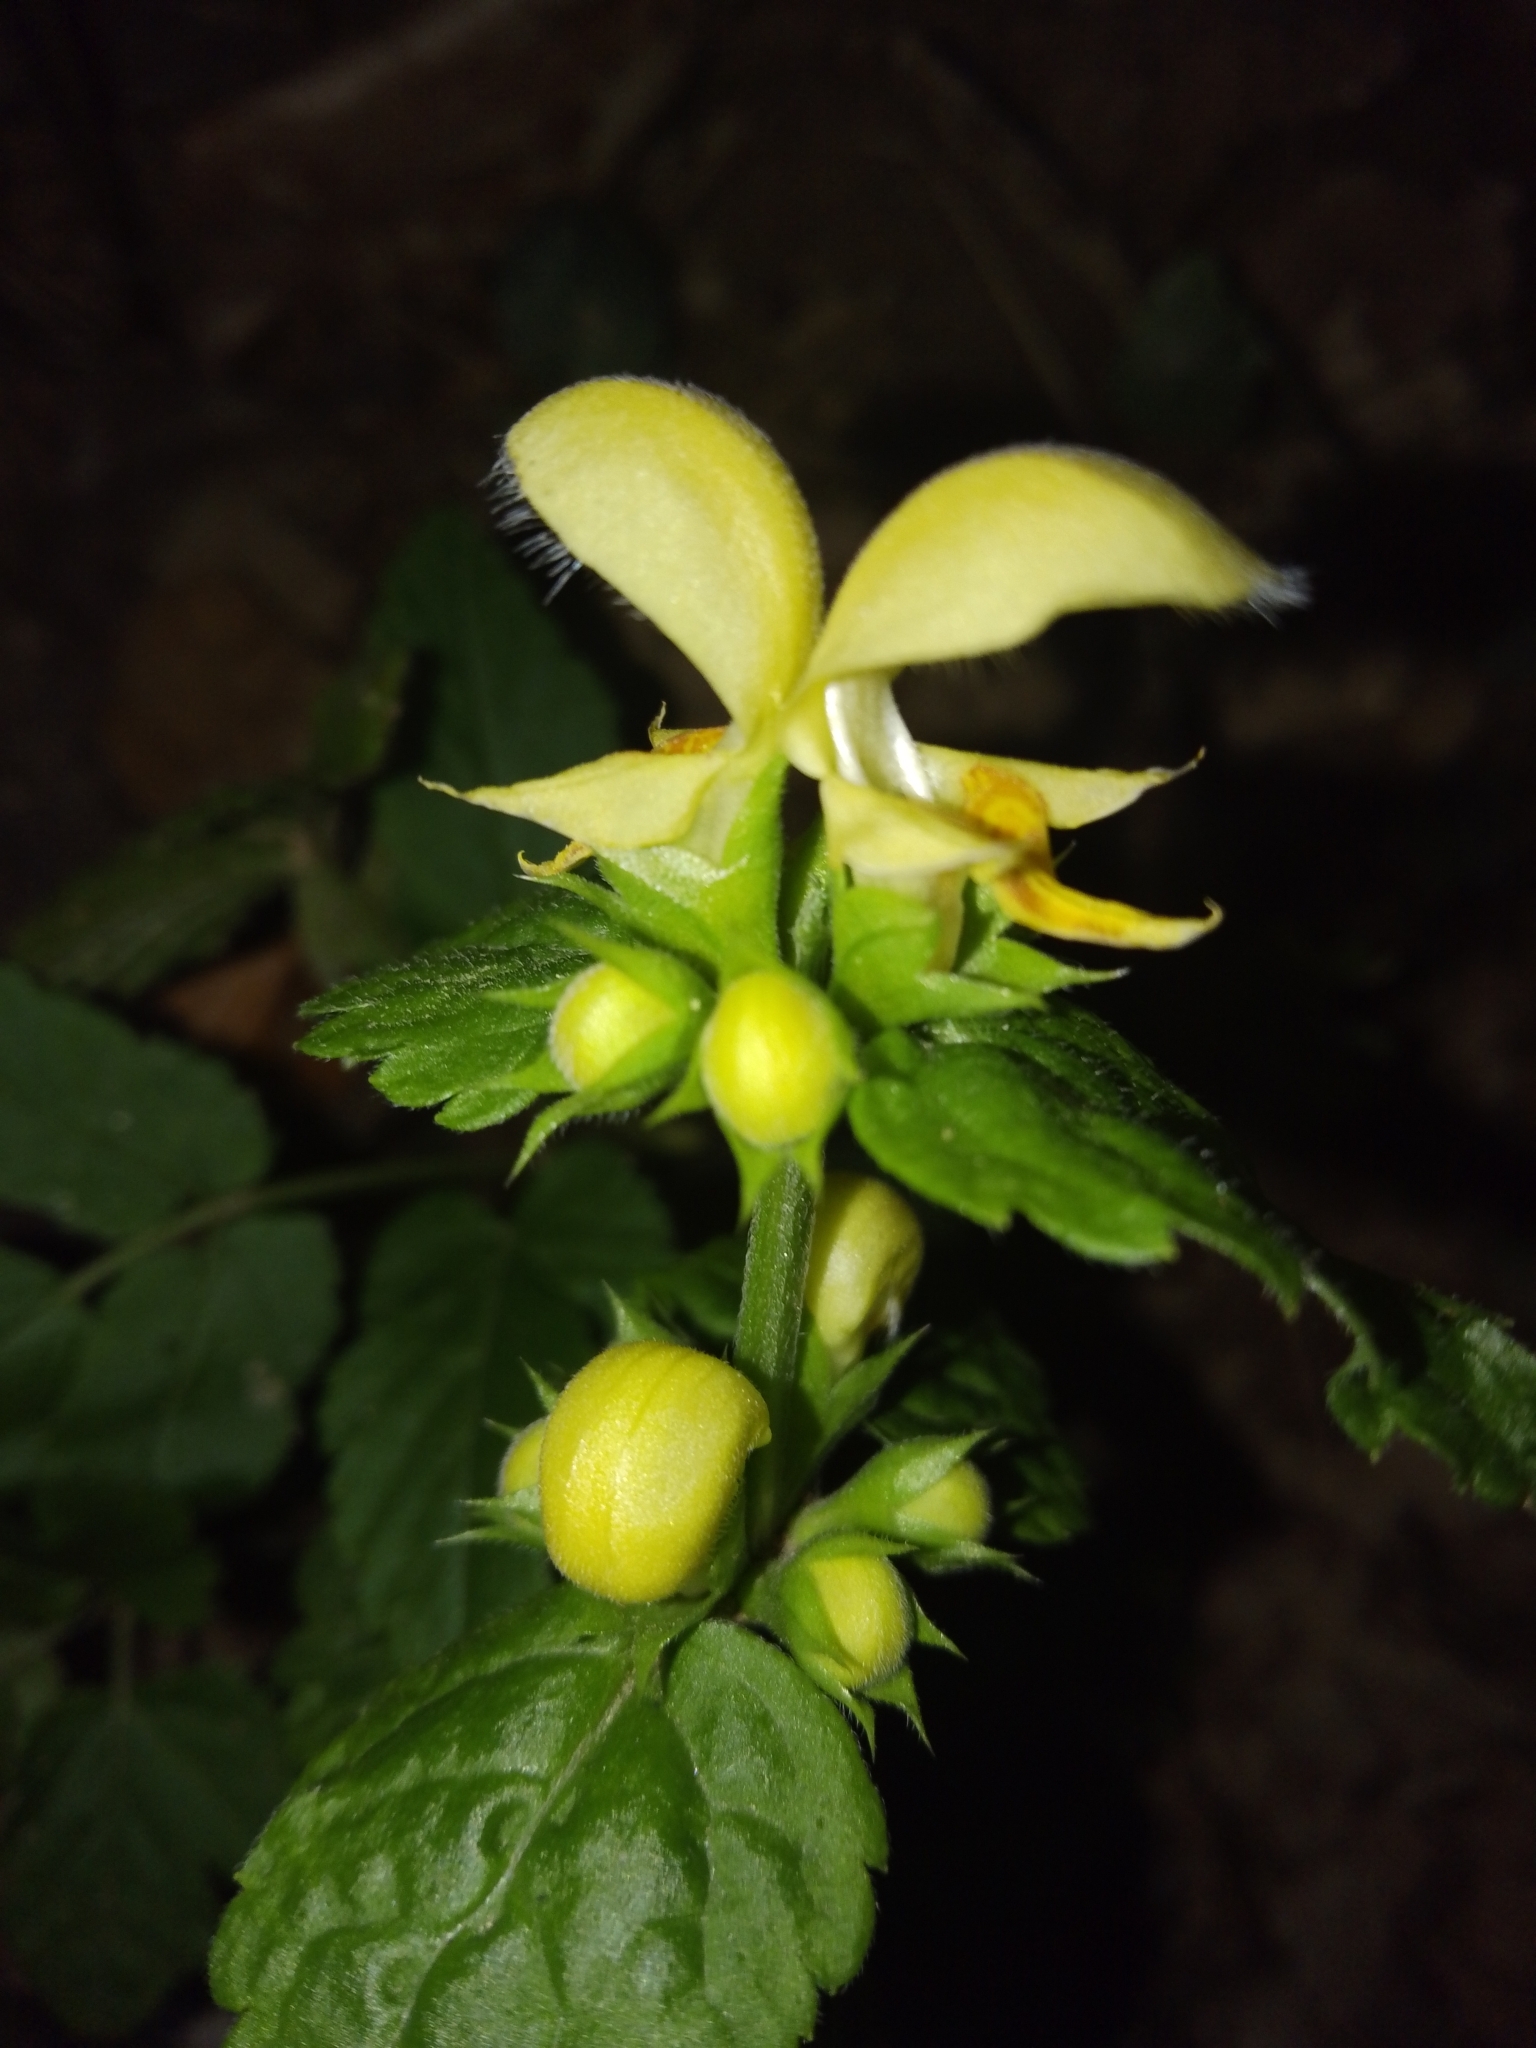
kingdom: Plantae
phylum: Tracheophyta
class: Magnoliopsida
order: Lamiales
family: Lamiaceae
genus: Lamium
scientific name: Lamium galeobdolon
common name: Yellow archangel
